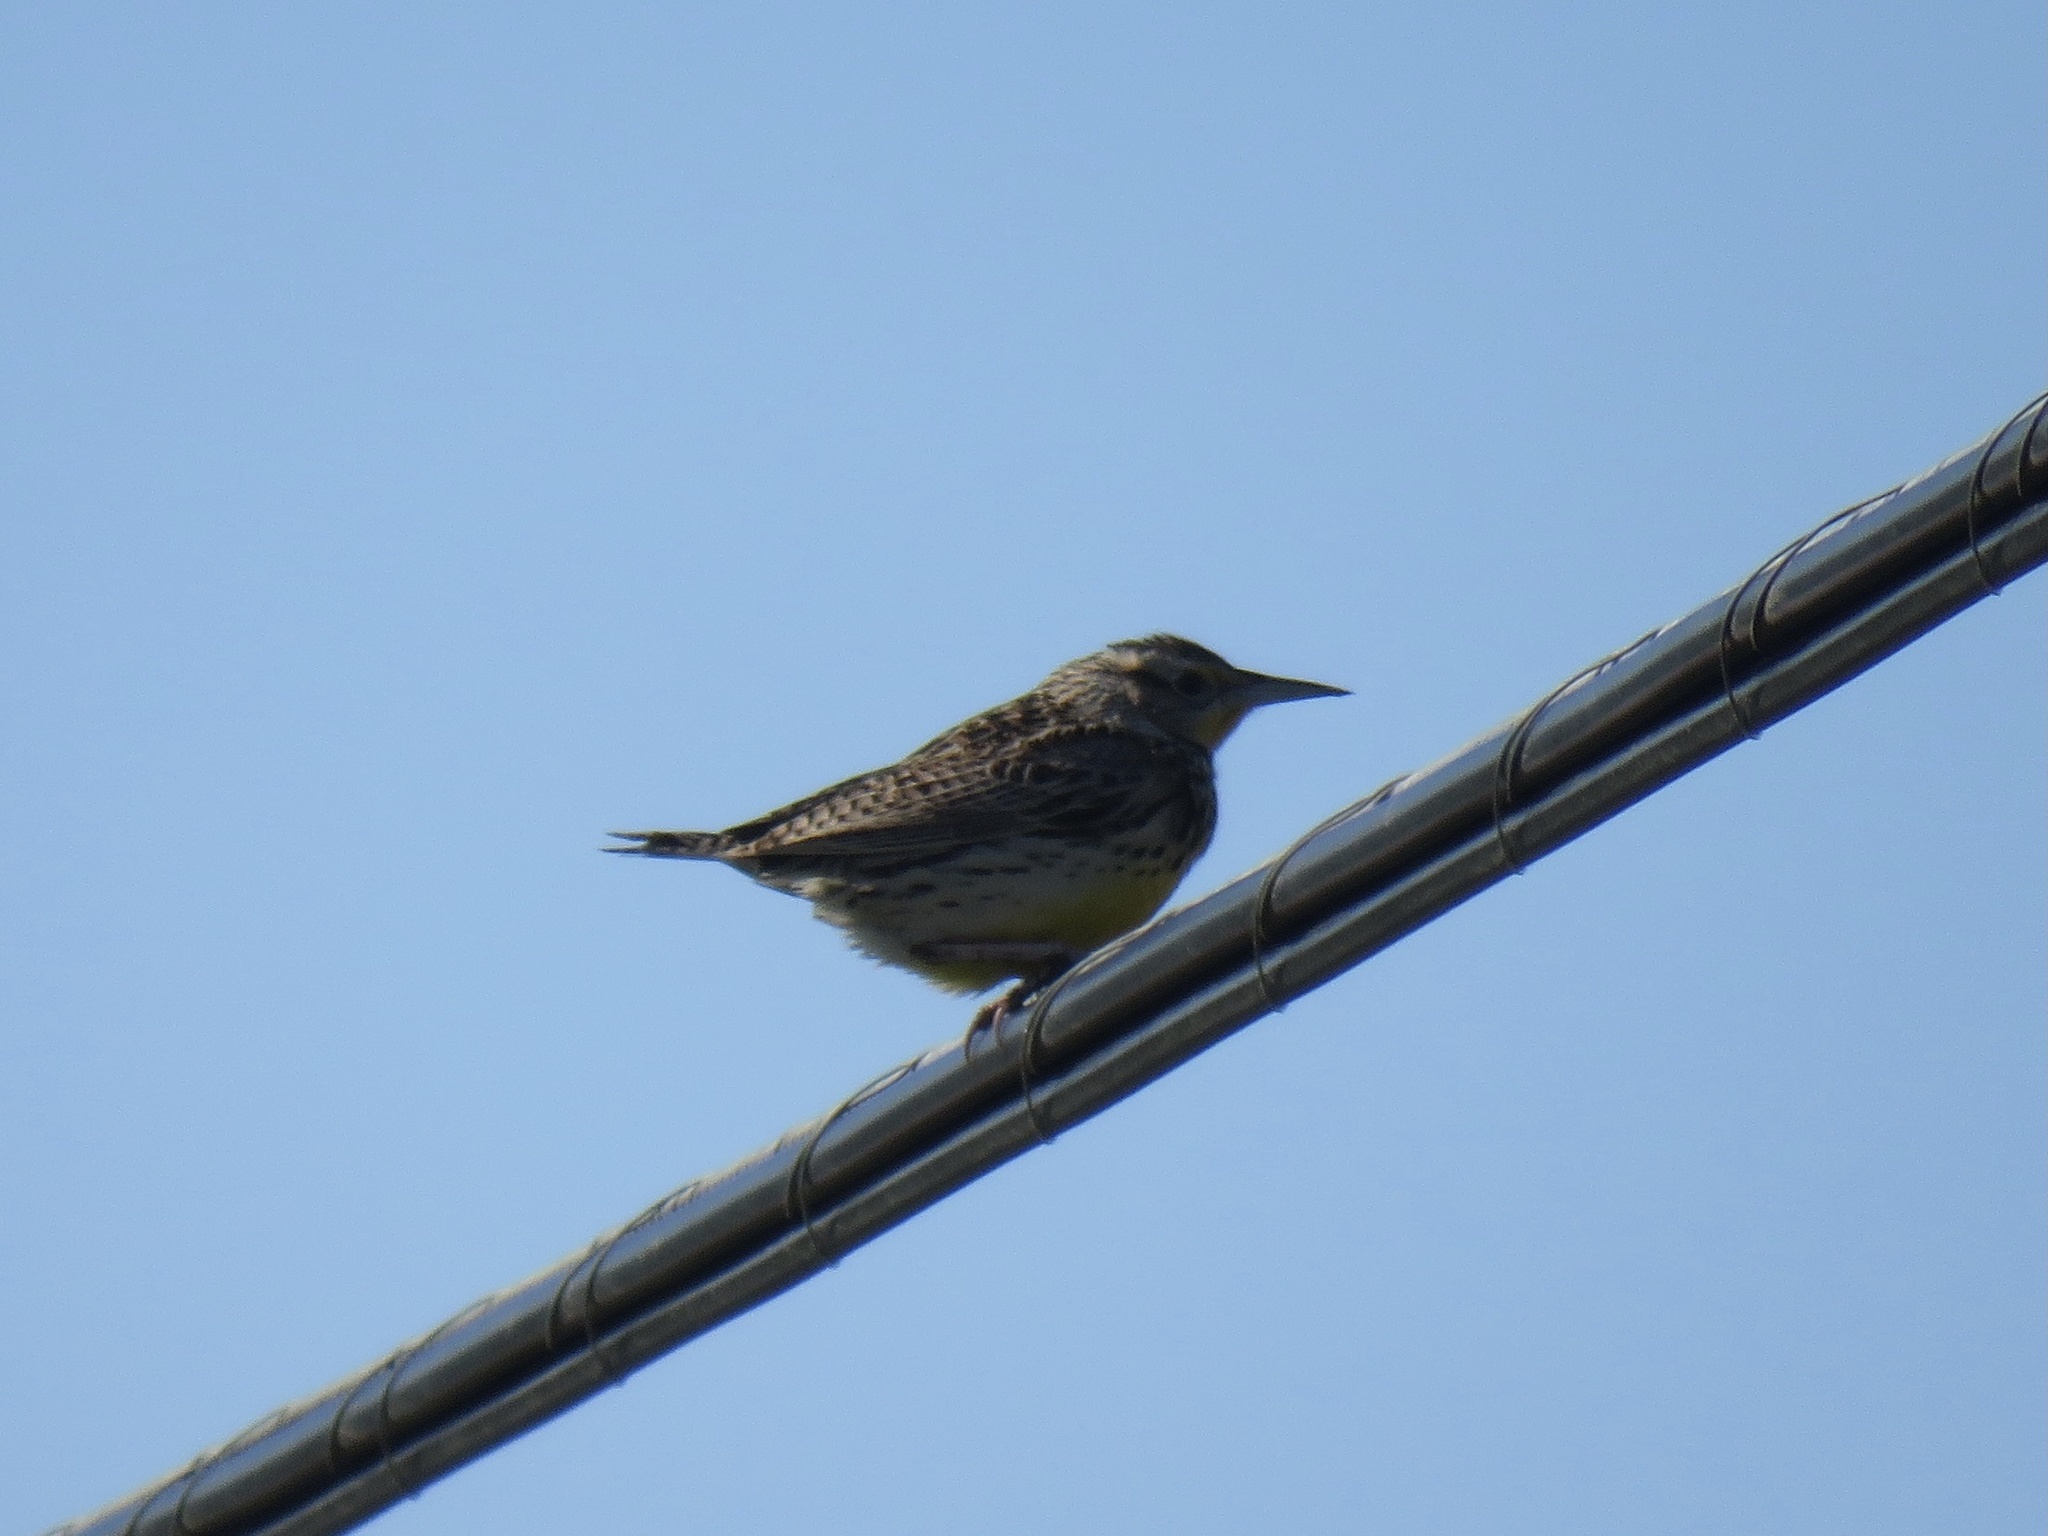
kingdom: Animalia
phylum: Chordata
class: Aves
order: Passeriformes
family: Icteridae
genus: Sturnella
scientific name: Sturnella neglecta
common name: Western meadowlark
